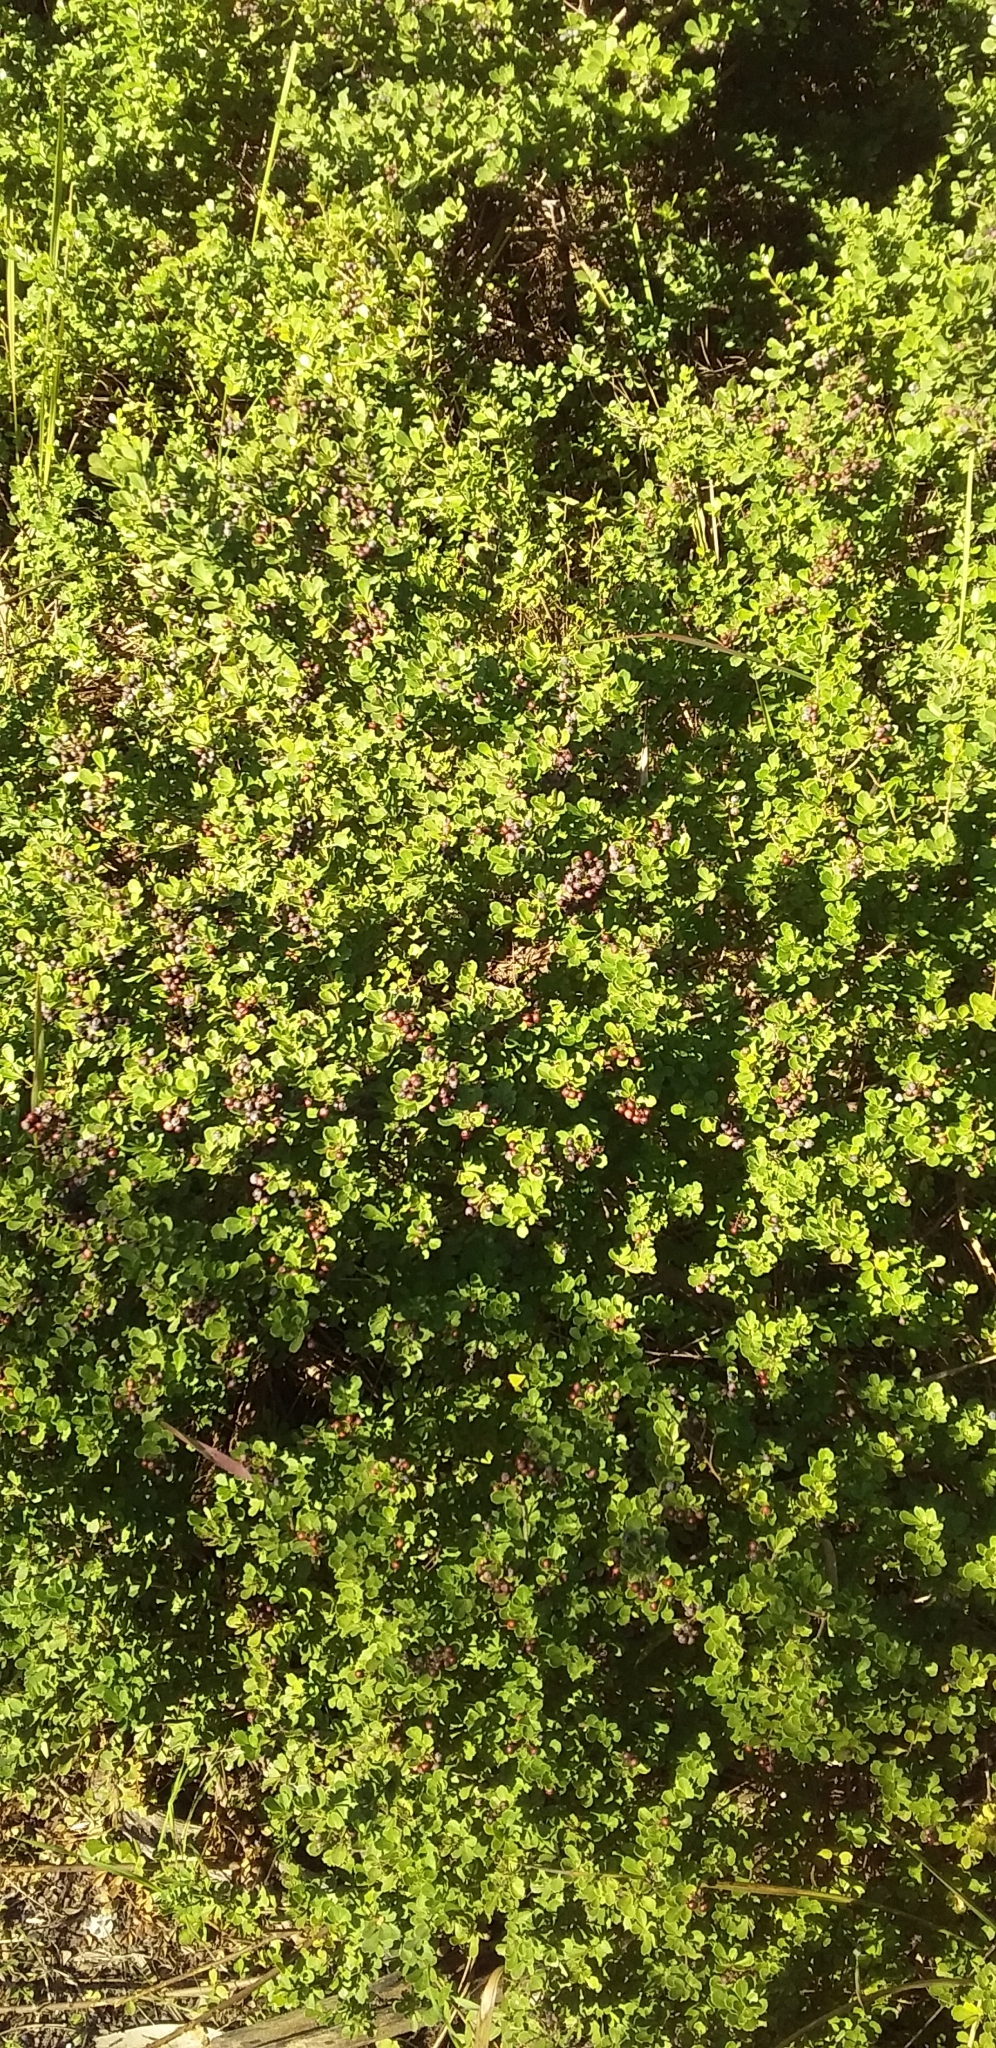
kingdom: Plantae
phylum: Tracheophyta
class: Magnoliopsida
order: Sapindales
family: Anacardiaceae
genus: Searsia
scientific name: Searsia crenata
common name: Crowberry
